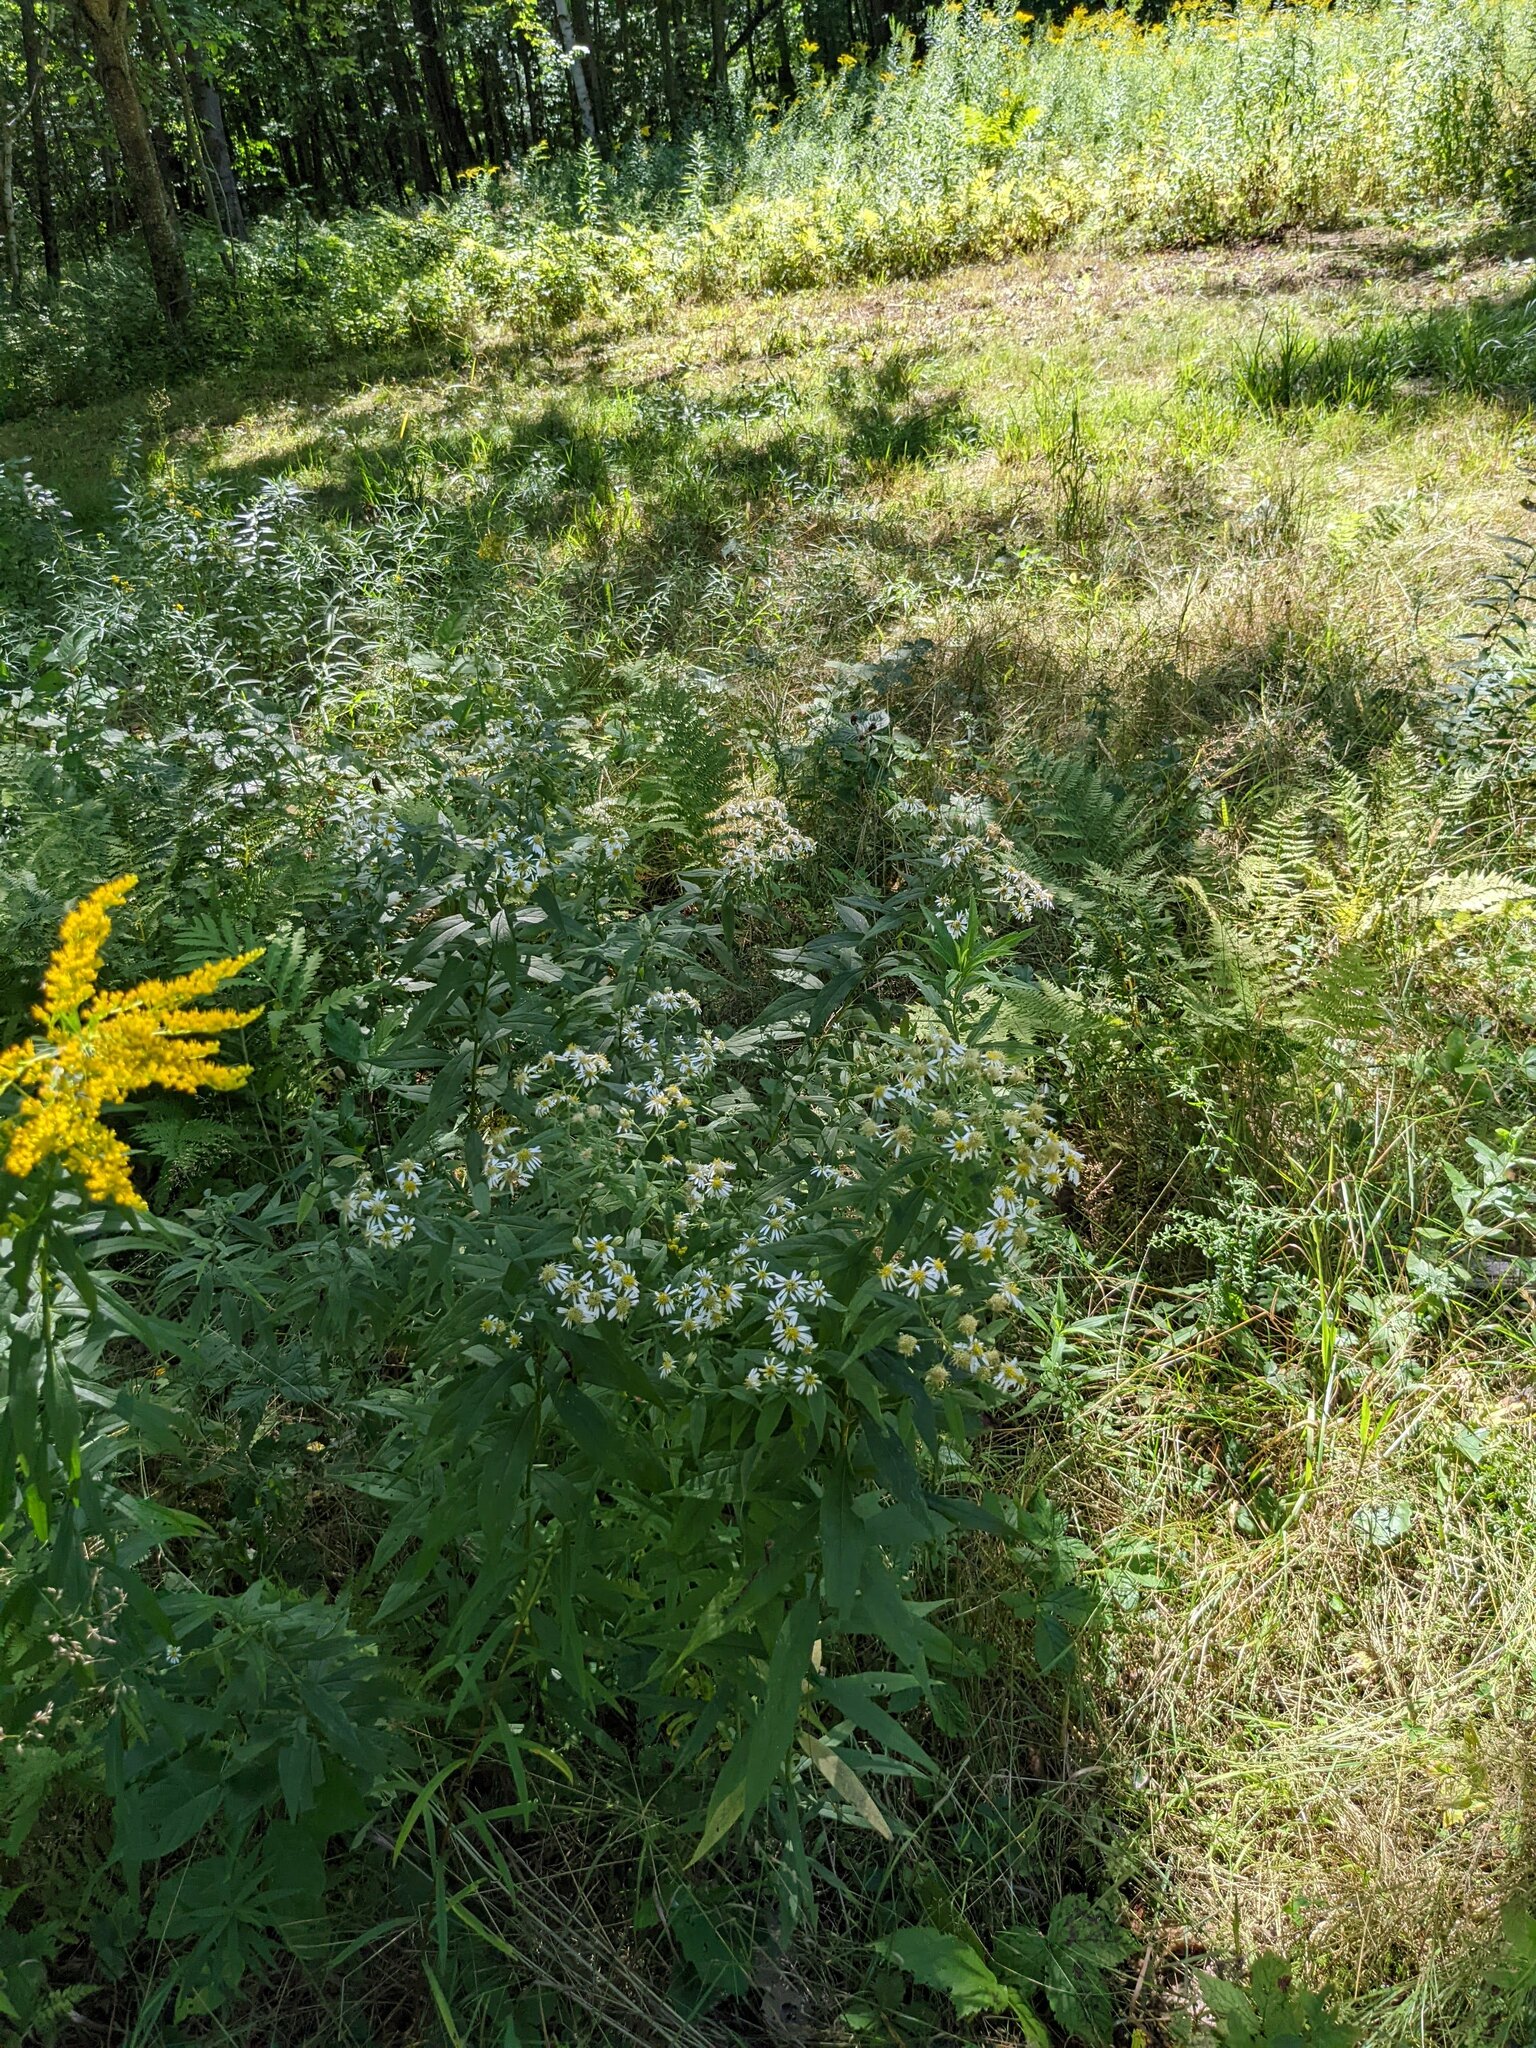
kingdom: Plantae
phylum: Tracheophyta
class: Magnoliopsida
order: Asterales
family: Asteraceae
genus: Symphyotrichum
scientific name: Symphyotrichum lanceolatum
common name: Panicled aster
